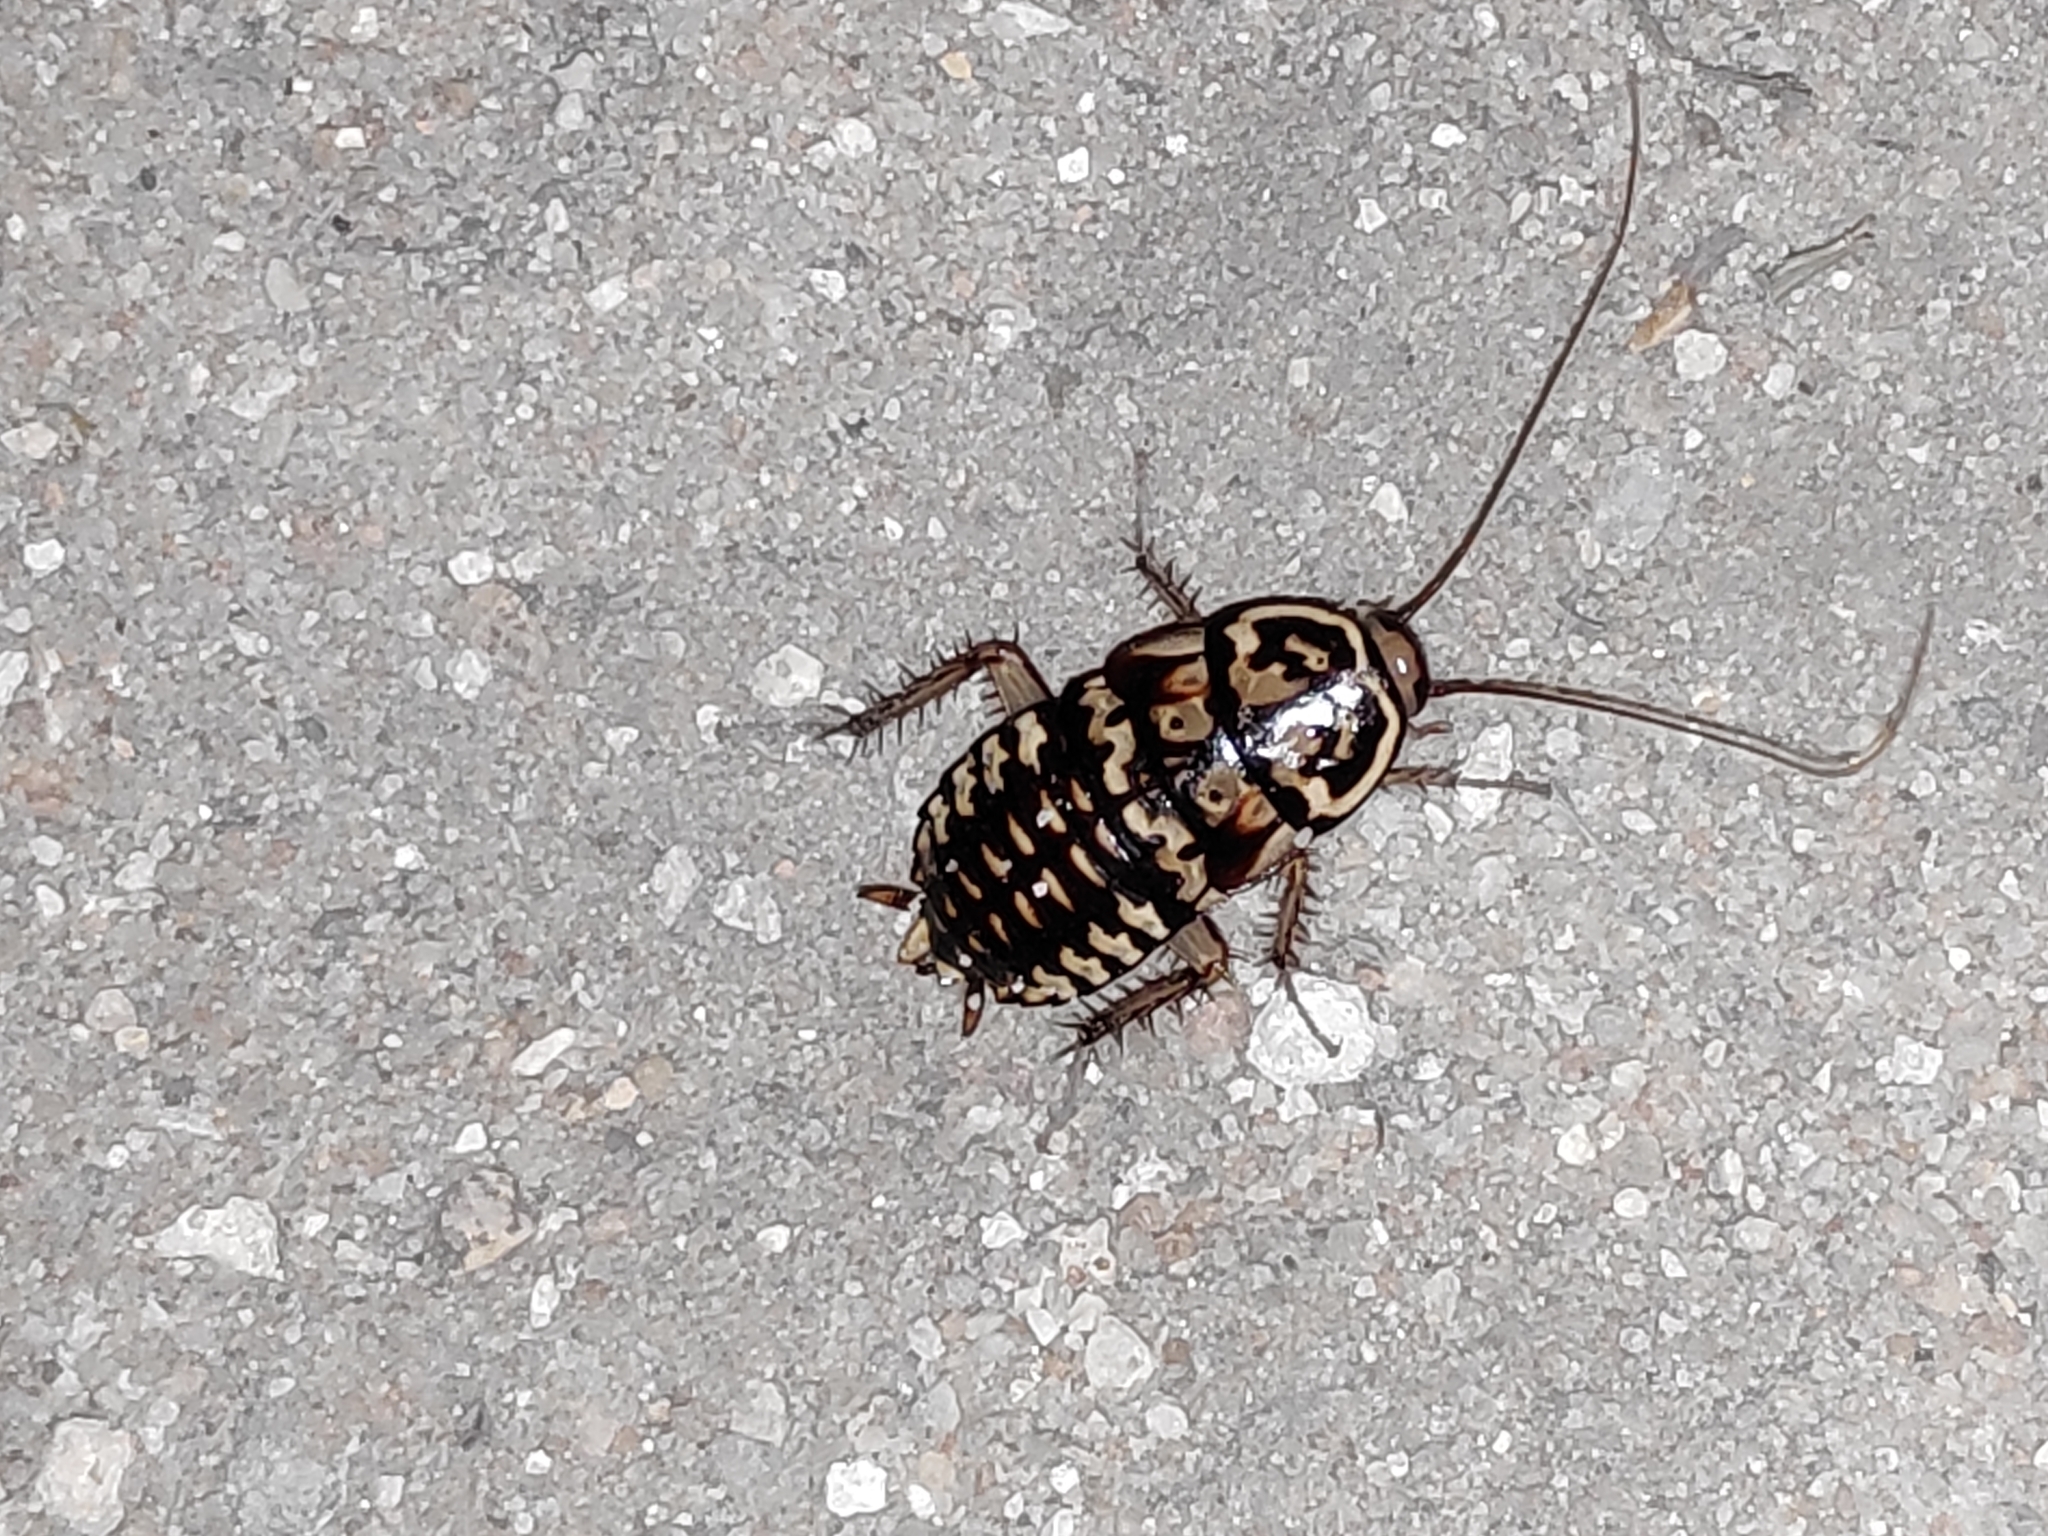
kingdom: Animalia
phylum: Arthropoda
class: Insecta
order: Blattodea
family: Blattidae
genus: Neostylopyga
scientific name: Neostylopyga rhombifolia
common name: Harlequin cockroach
